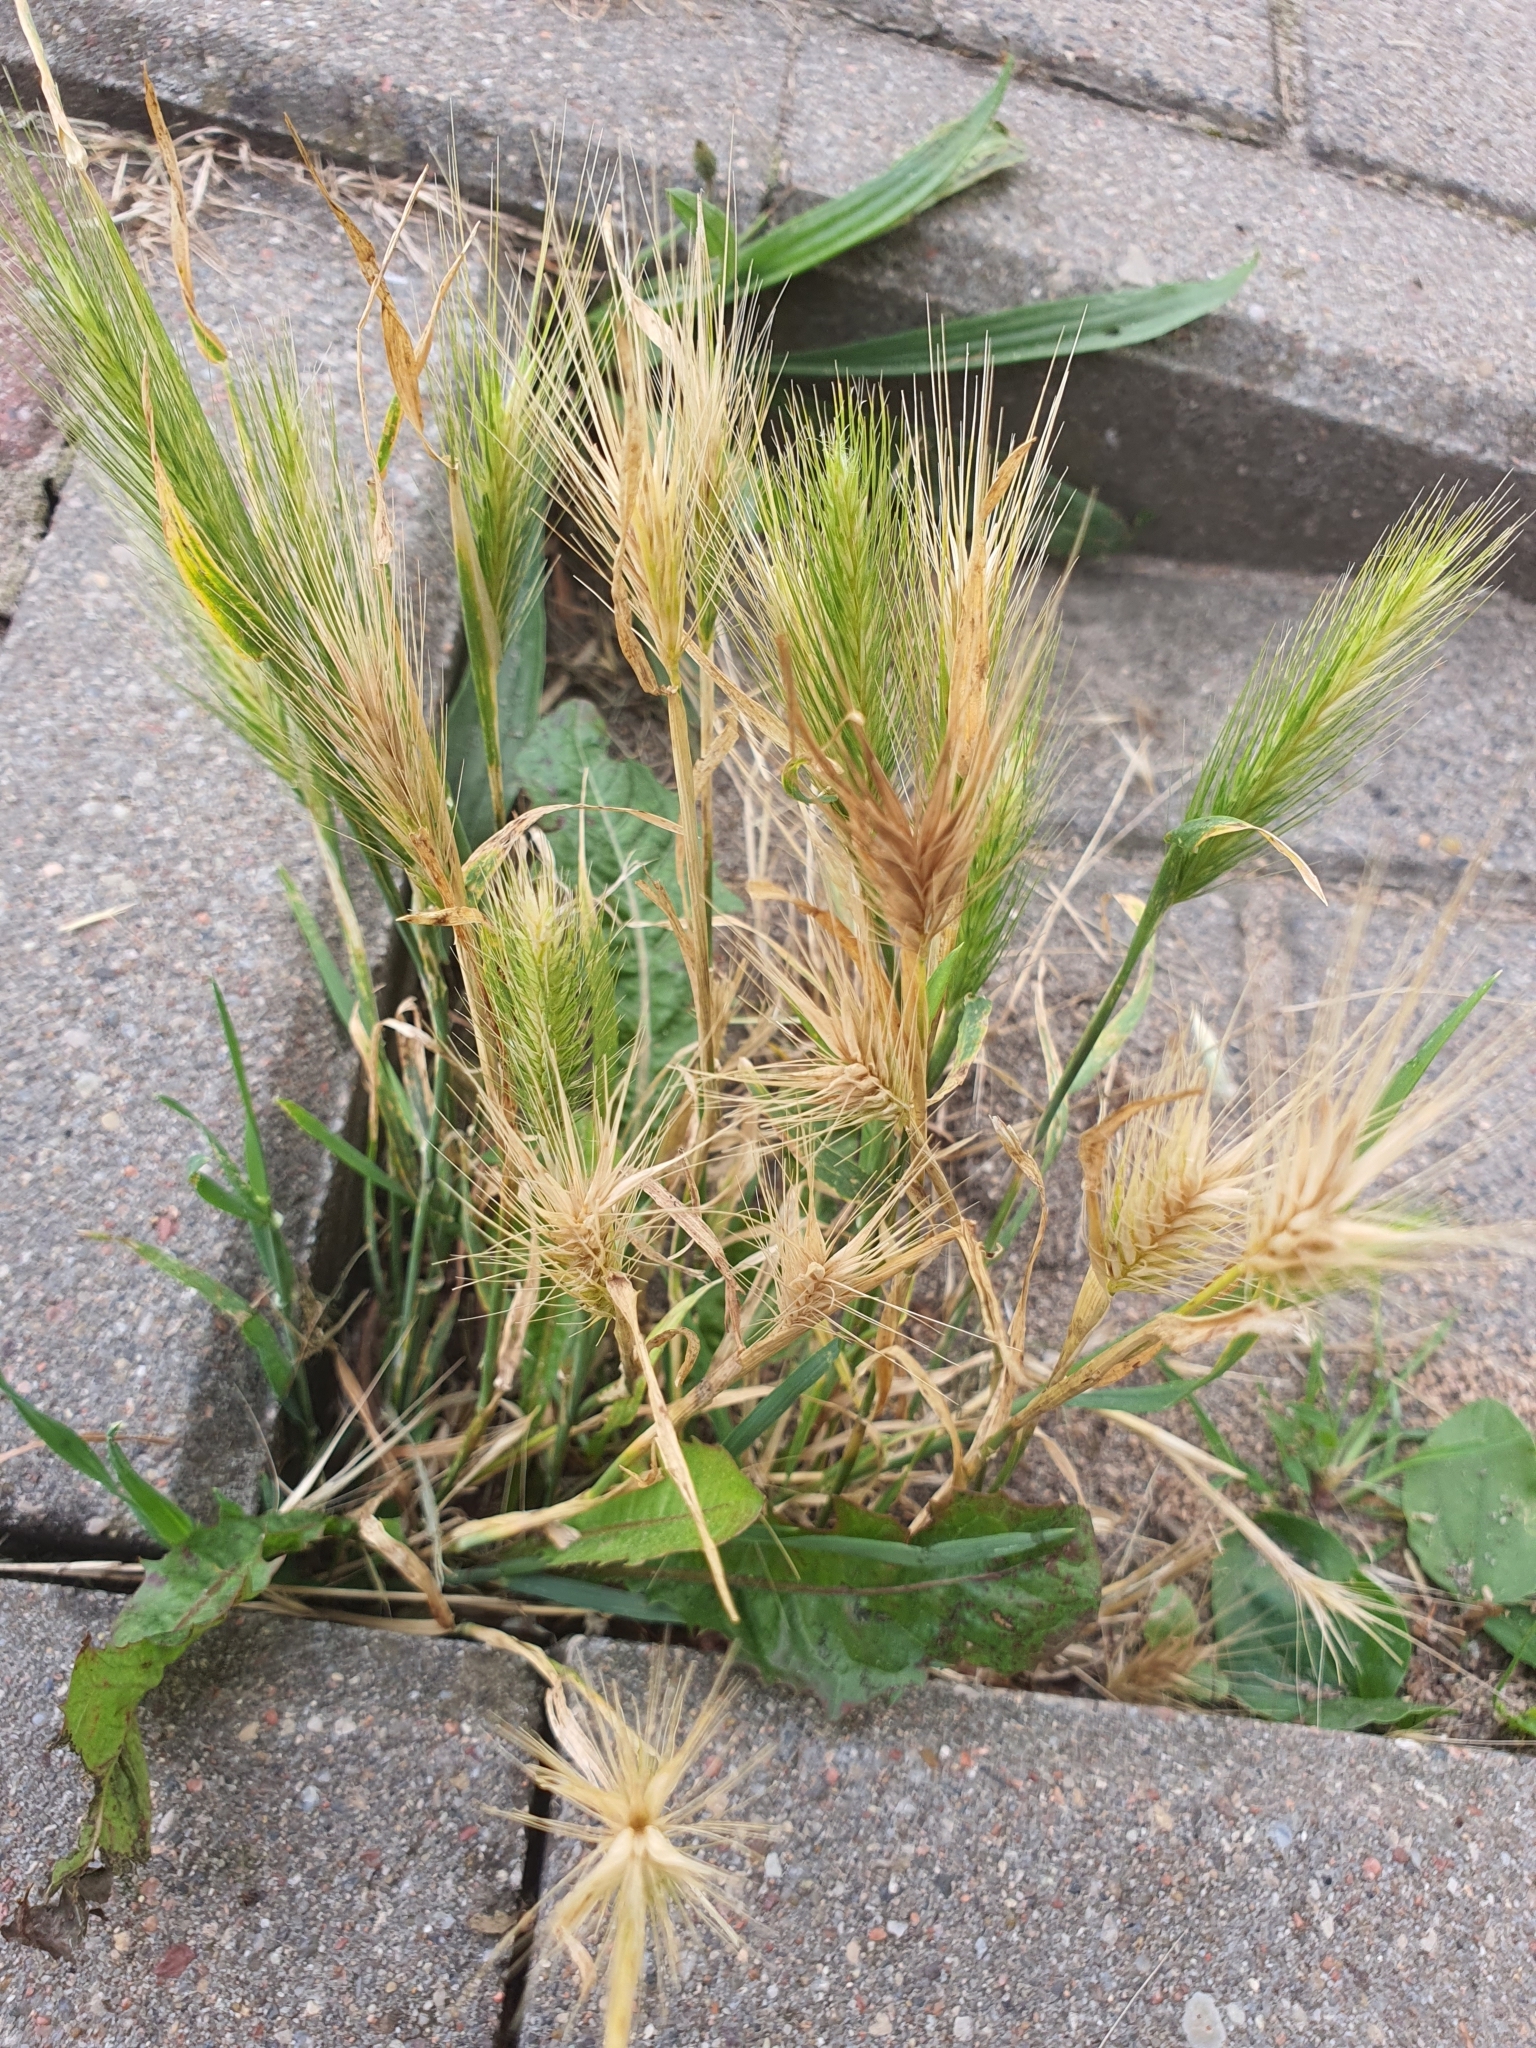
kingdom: Plantae
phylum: Tracheophyta
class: Liliopsida
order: Poales
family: Poaceae
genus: Hordeum
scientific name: Hordeum murinum
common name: Wall barley
